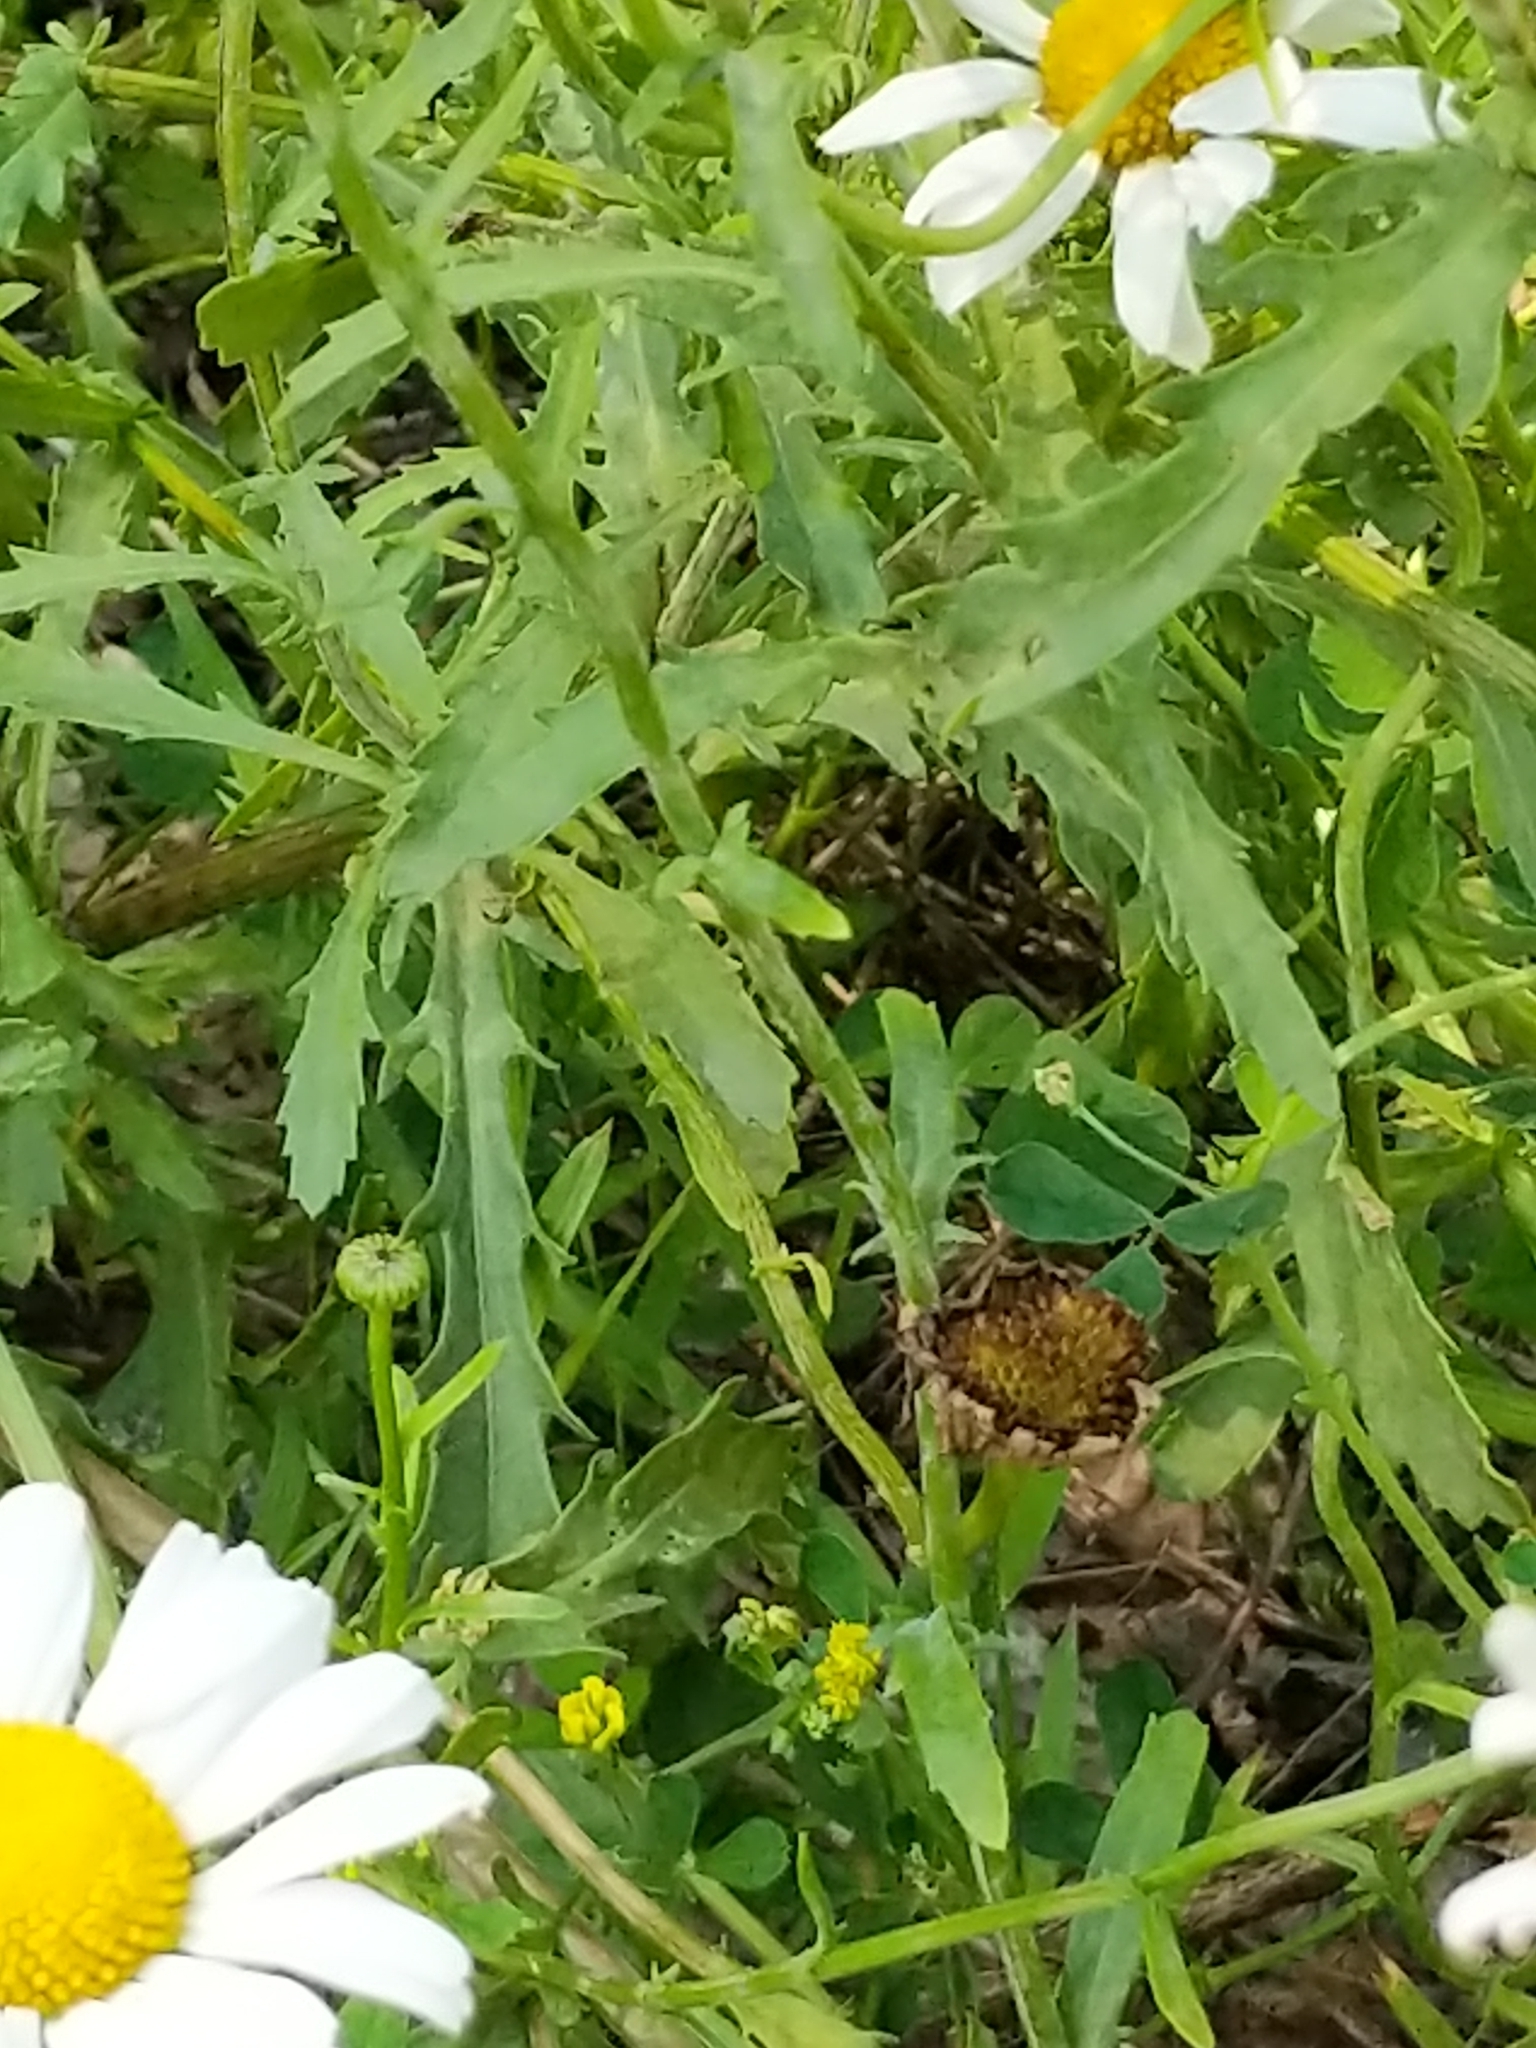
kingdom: Plantae
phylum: Tracheophyta
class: Magnoliopsida
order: Asterales
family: Asteraceae
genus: Leucanthemum
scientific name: Leucanthemum vulgare
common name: Oxeye daisy
